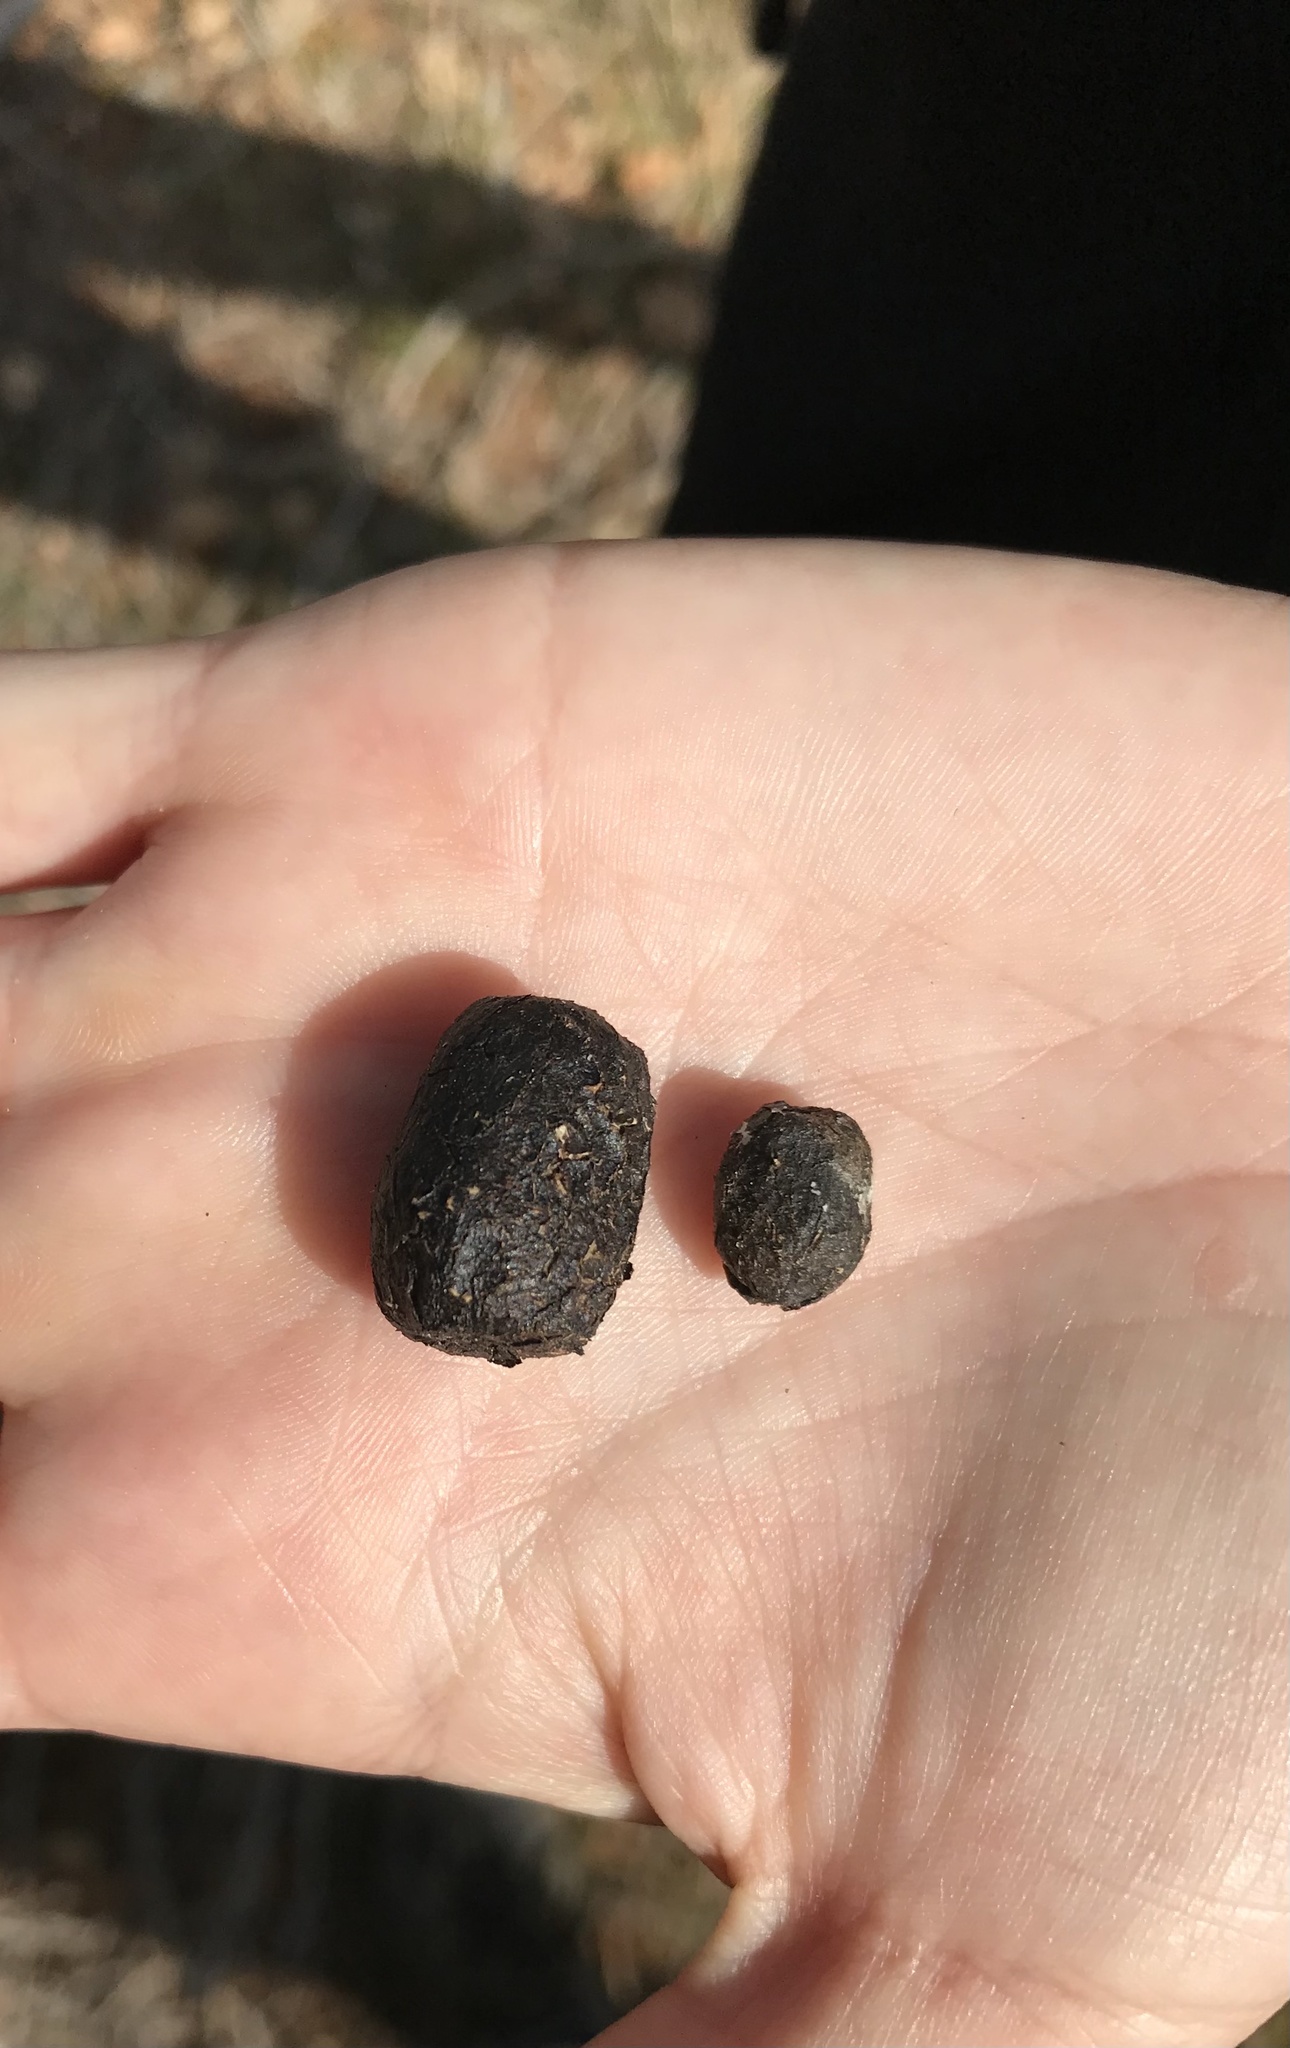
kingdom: Animalia
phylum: Chordata
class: Mammalia
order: Artiodactyla
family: Cervidae
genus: Cervus
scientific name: Cervus elaphus
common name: Red deer
